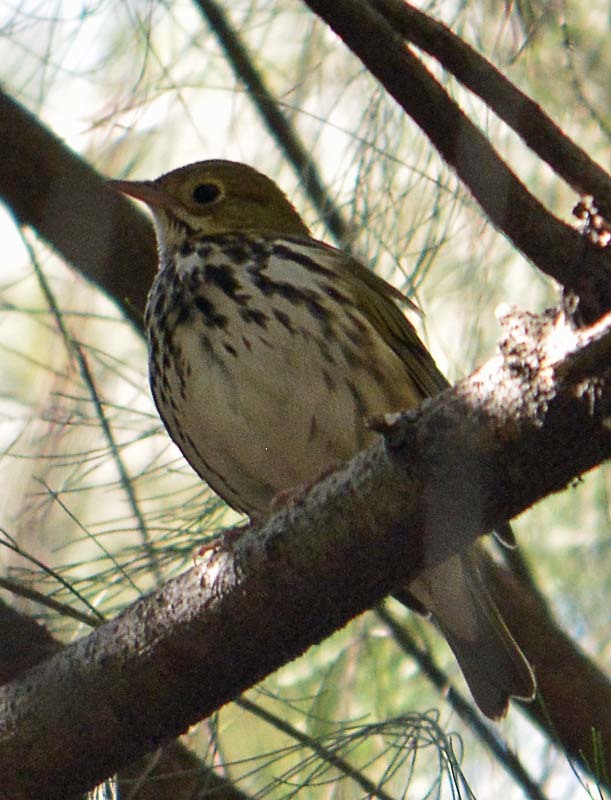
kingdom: Animalia
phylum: Chordata
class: Aves
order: Passeriformes
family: Parulidae
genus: Seiurus
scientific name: Seiurus aurocapilla
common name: Ovenbird
